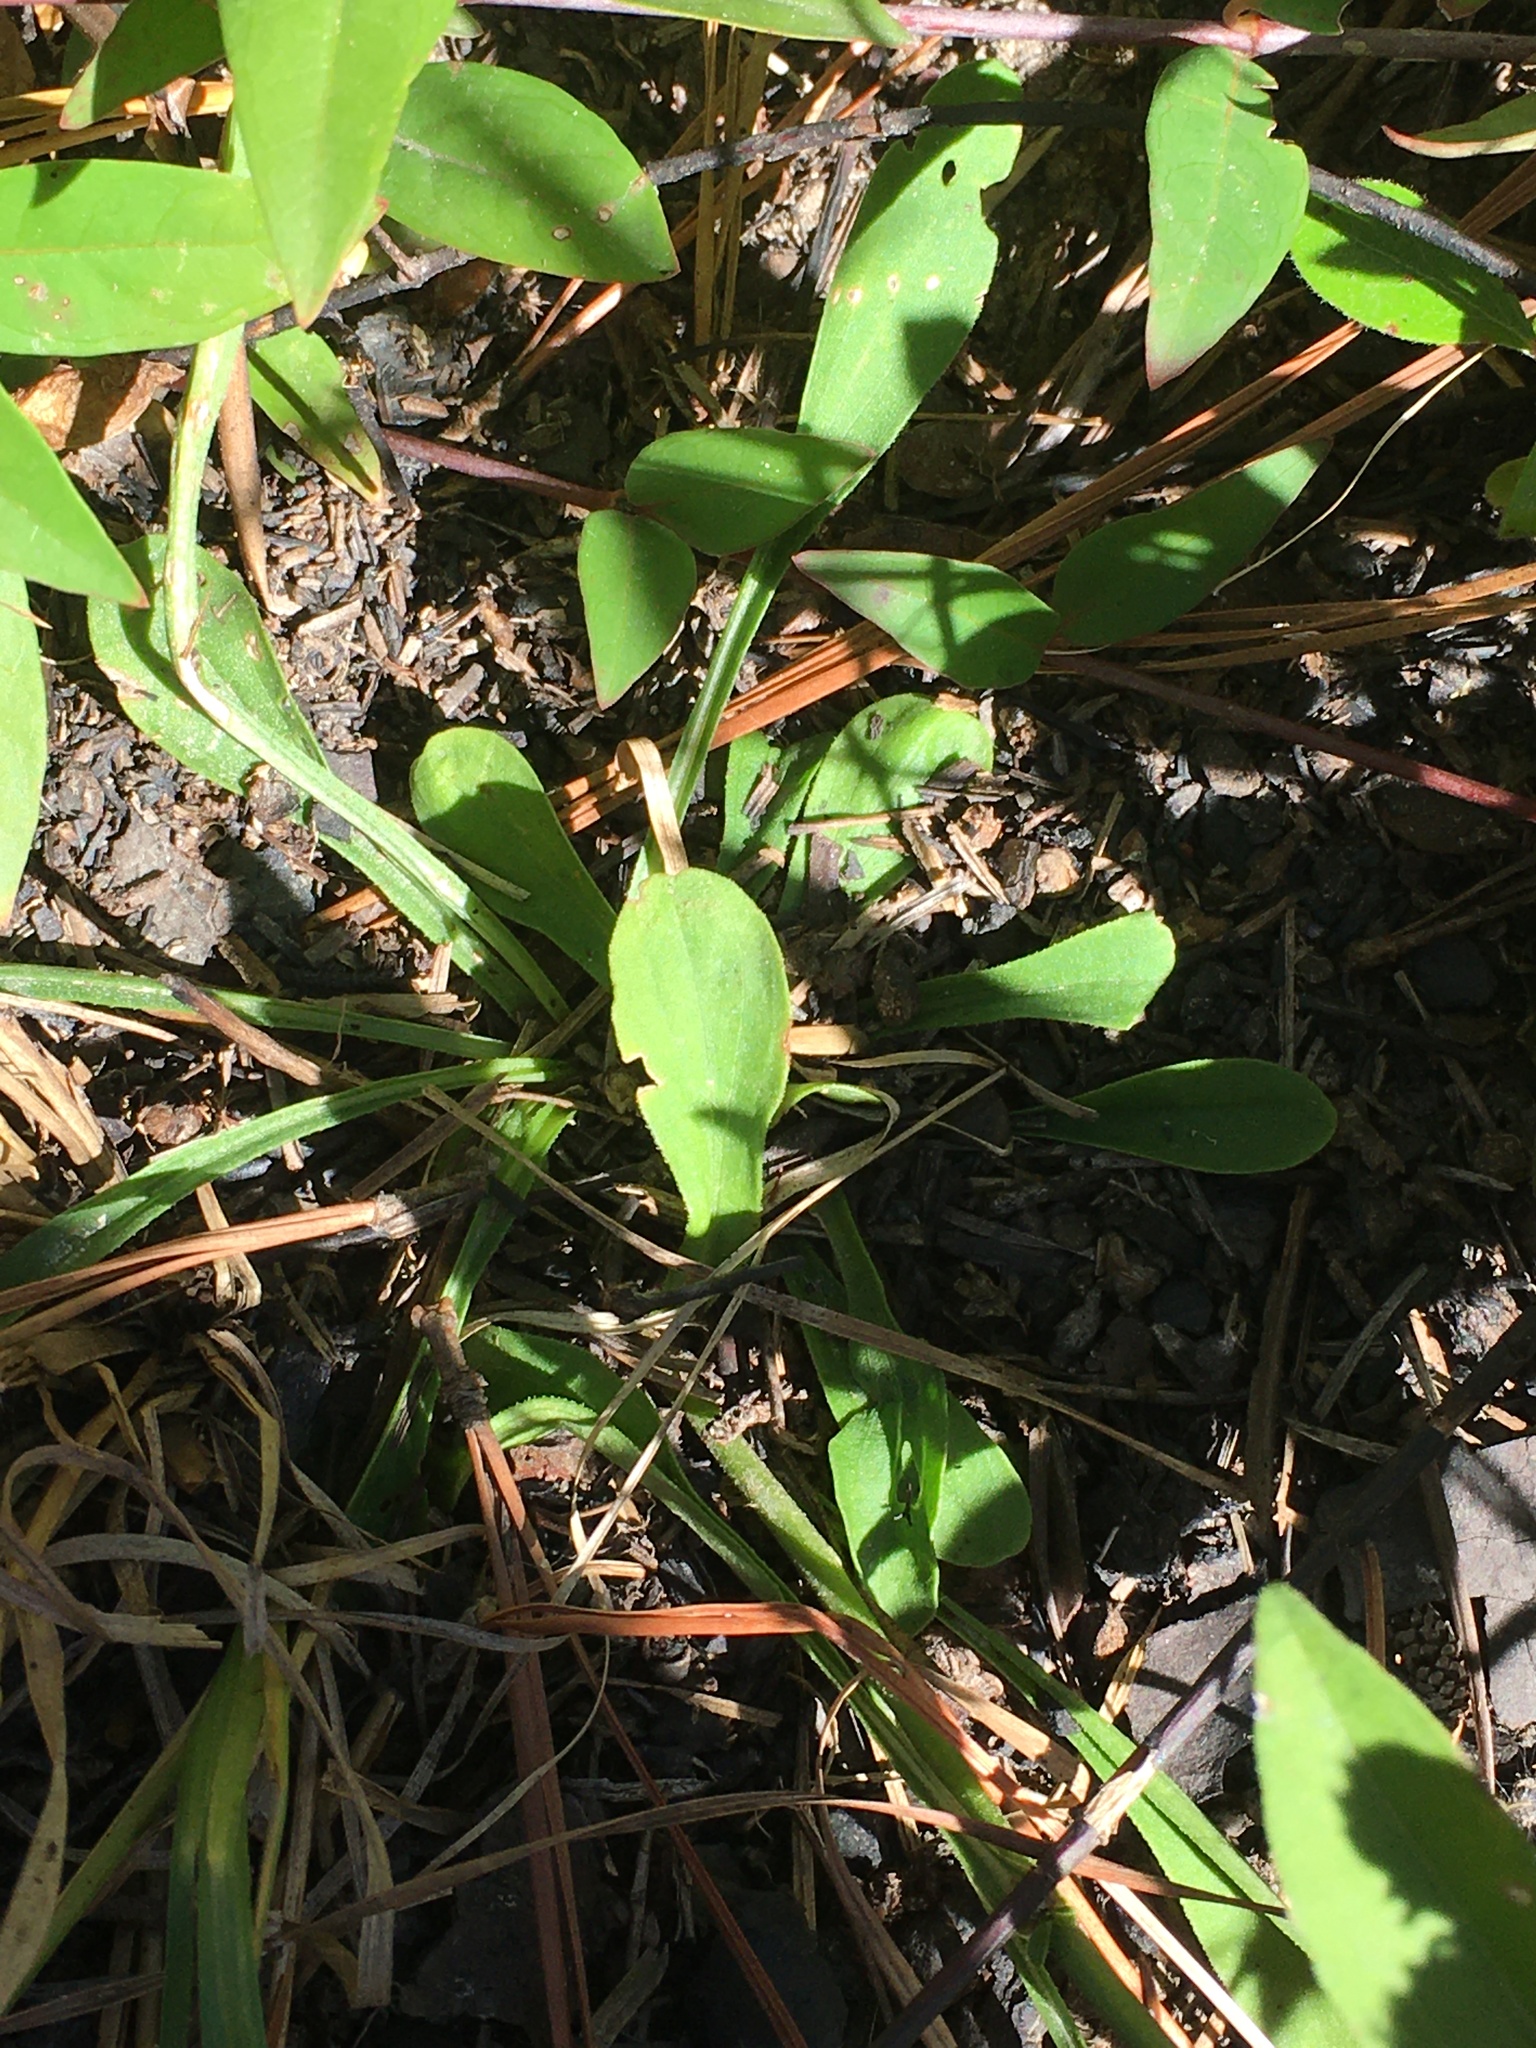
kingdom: Plantae
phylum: Tracheophyta
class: Magnoliopsida
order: Asterales
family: Asteraceae
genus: Carphephorus
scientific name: Carphephorus bellidifolius
